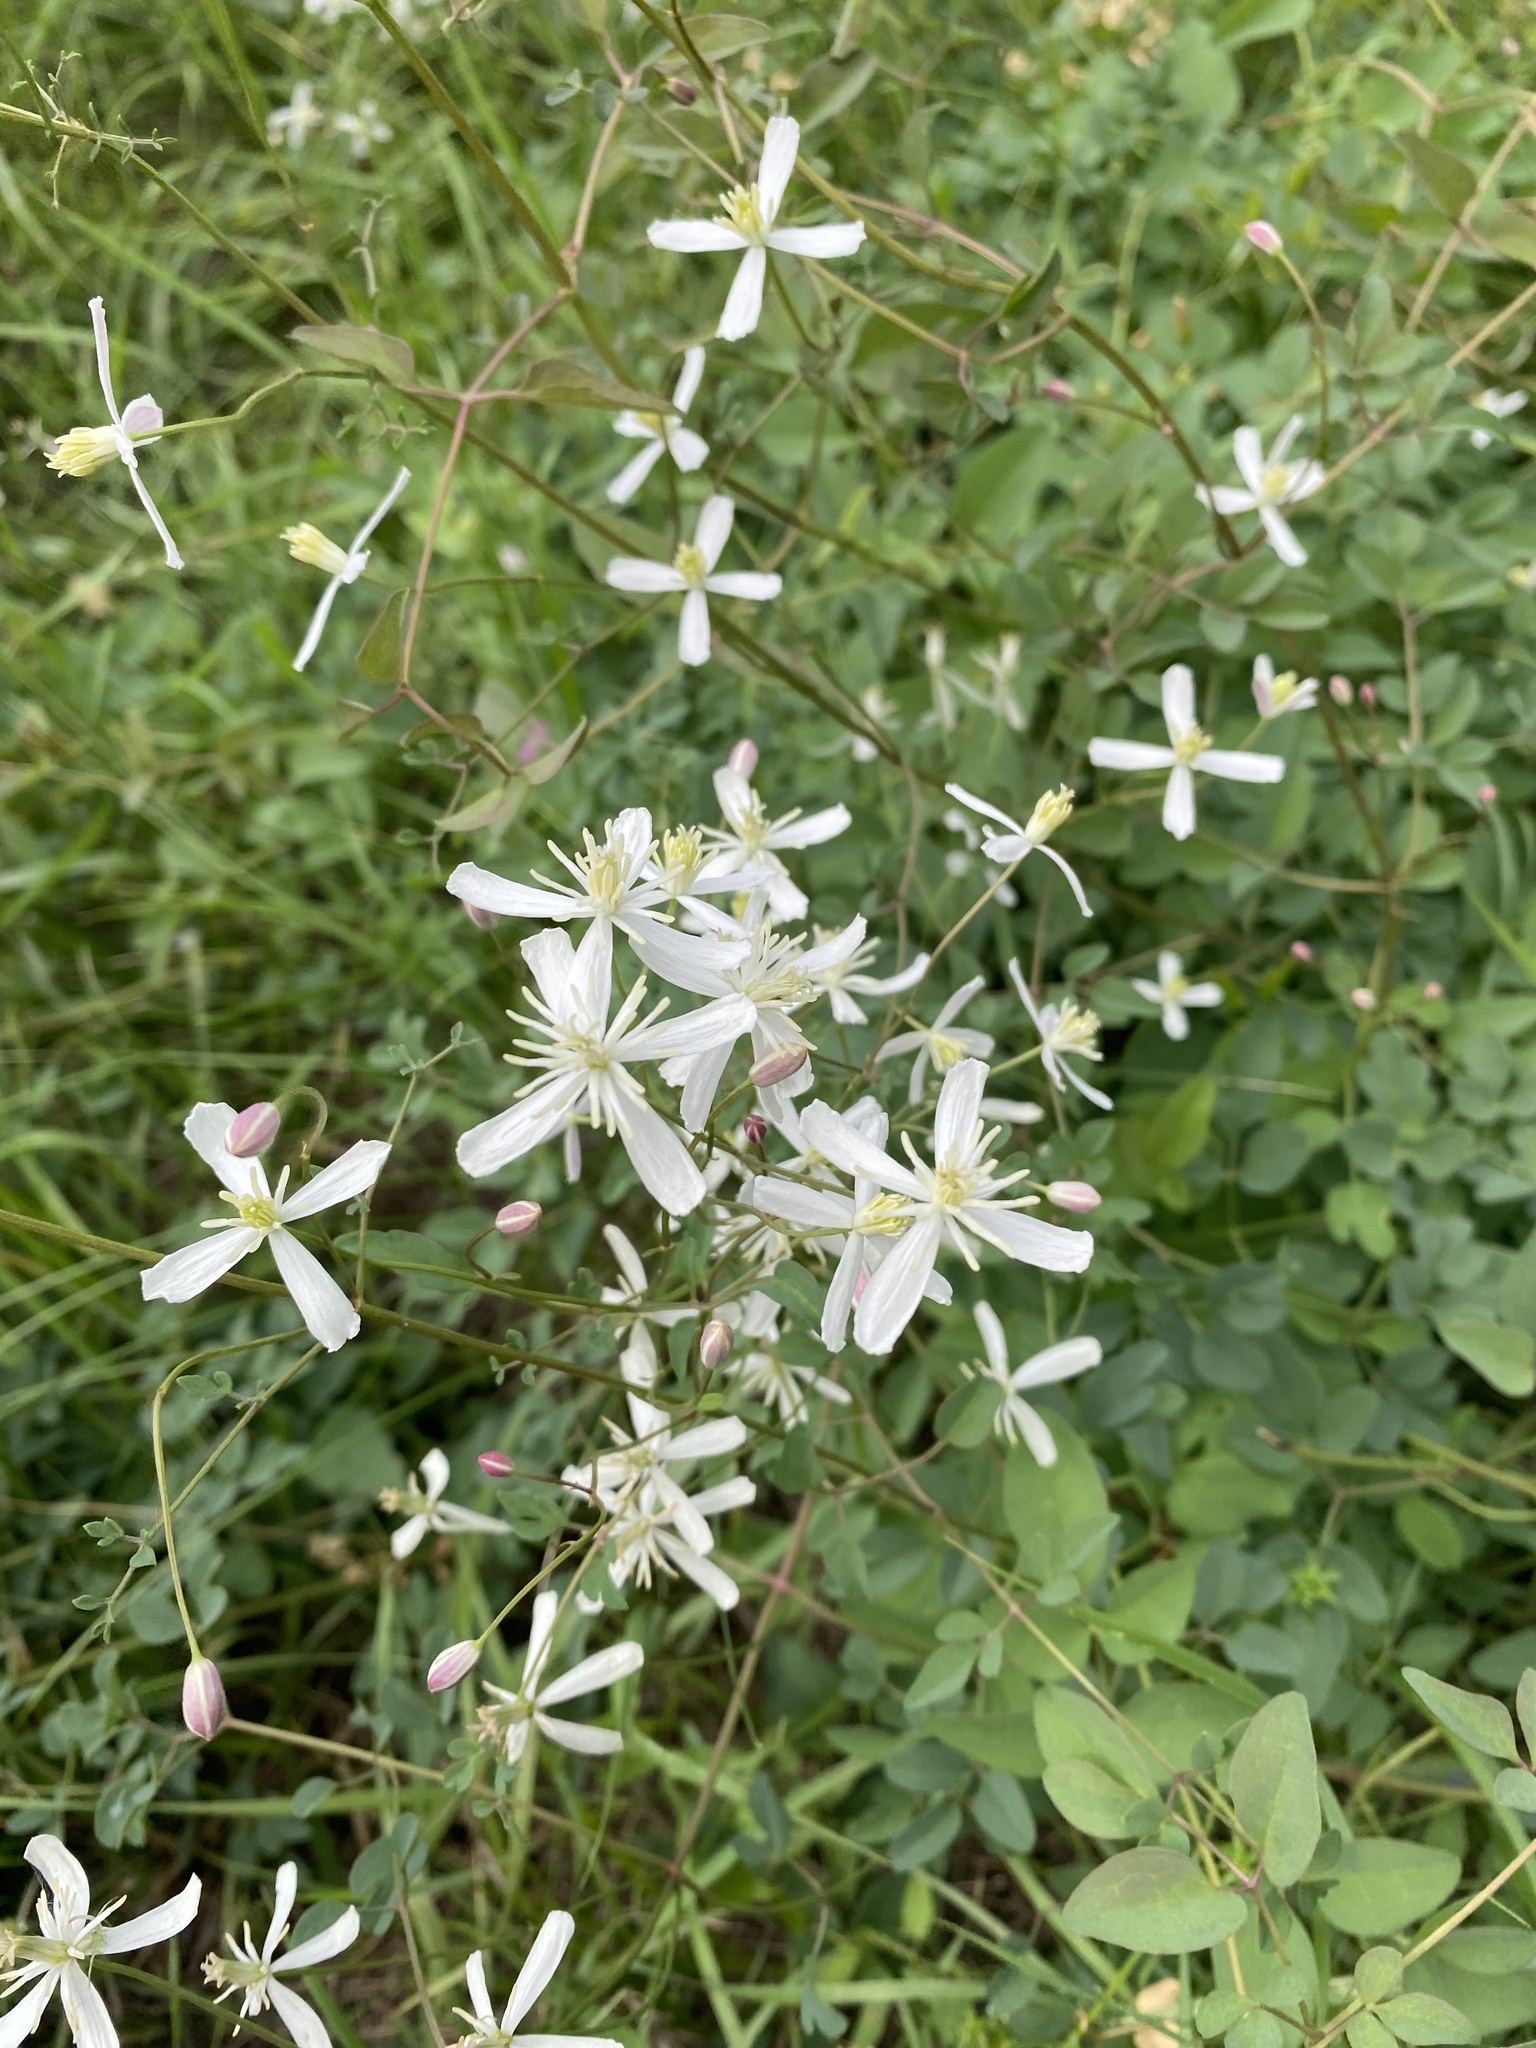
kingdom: Plantae
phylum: Tracheophyta
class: Magnoliopsida
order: Ranunculales
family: Ranunculaceae
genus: Clematis
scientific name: Clematis lathyrifolia
